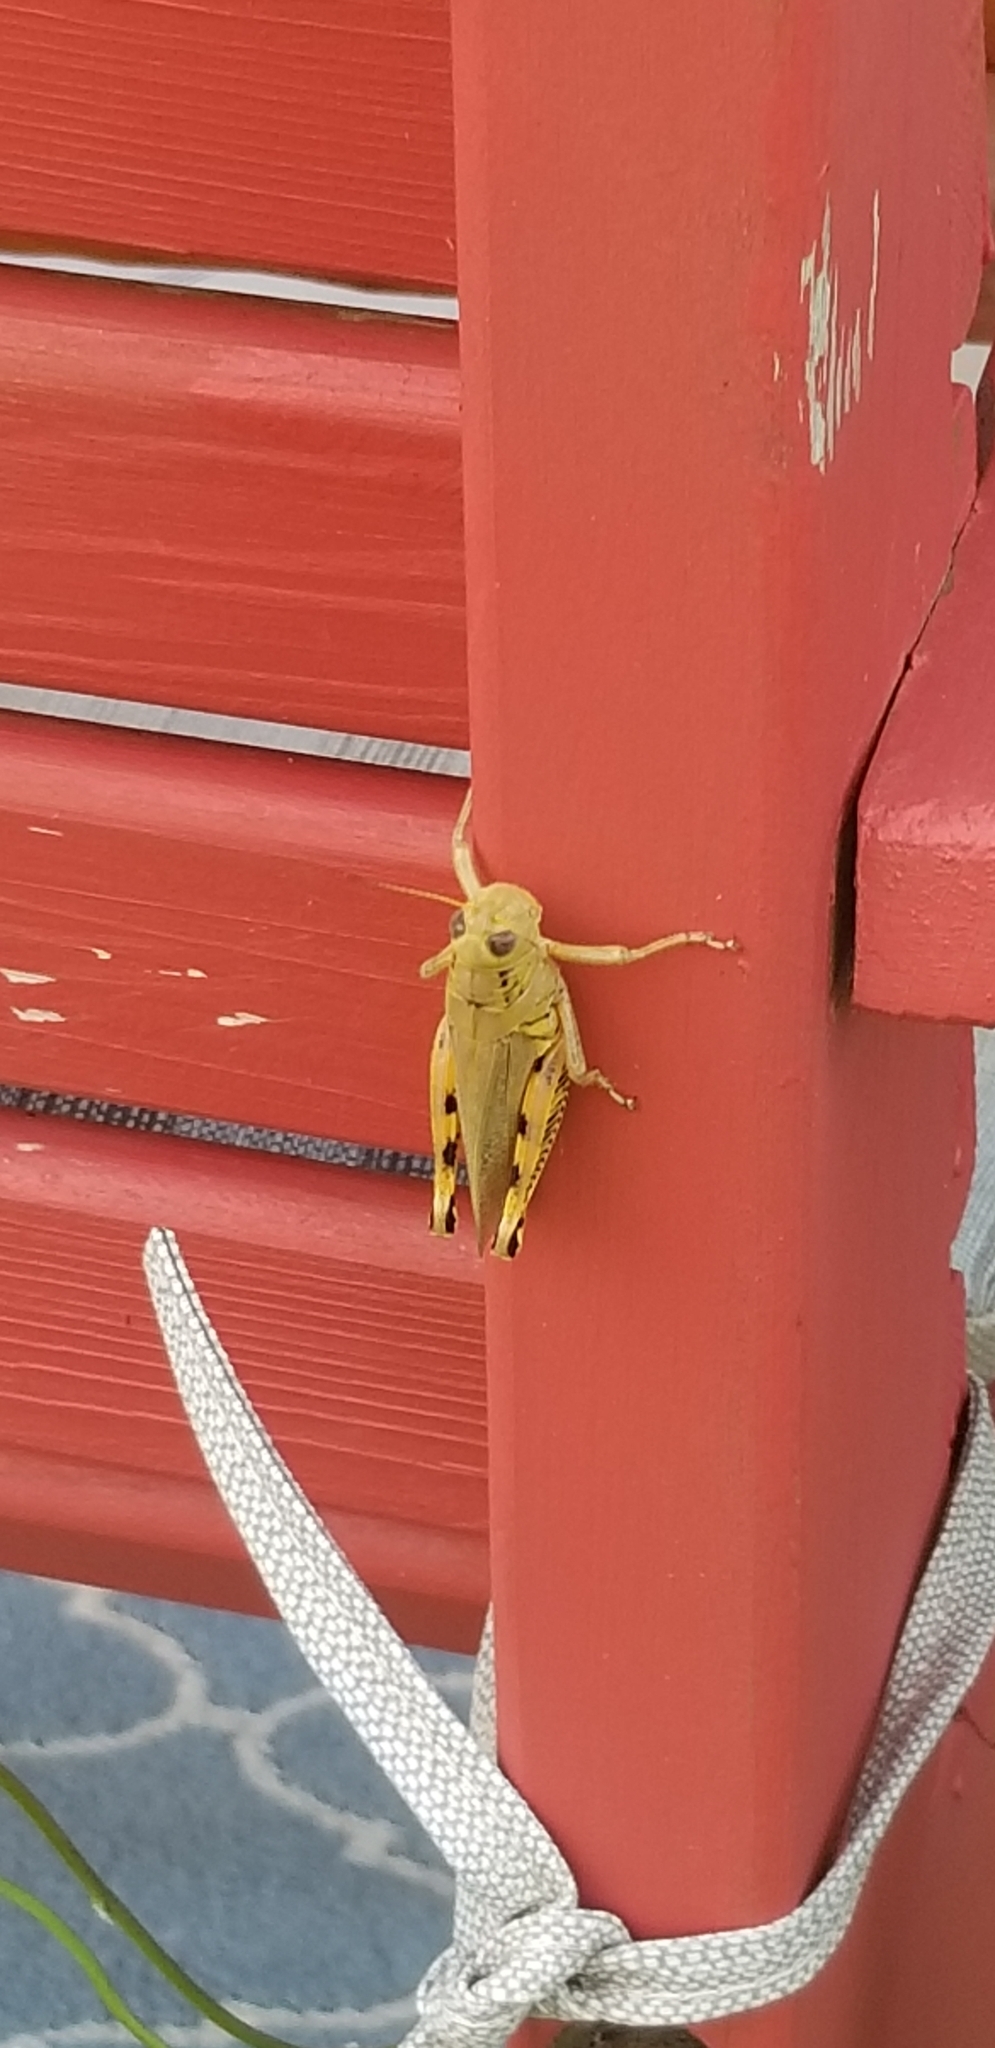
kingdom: Animalia
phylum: Arthropoda
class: Insecta
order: Orthoptera
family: Acrididae
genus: Melanoplus
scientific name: Melanoplus differentialis
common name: Differential grasshopper
